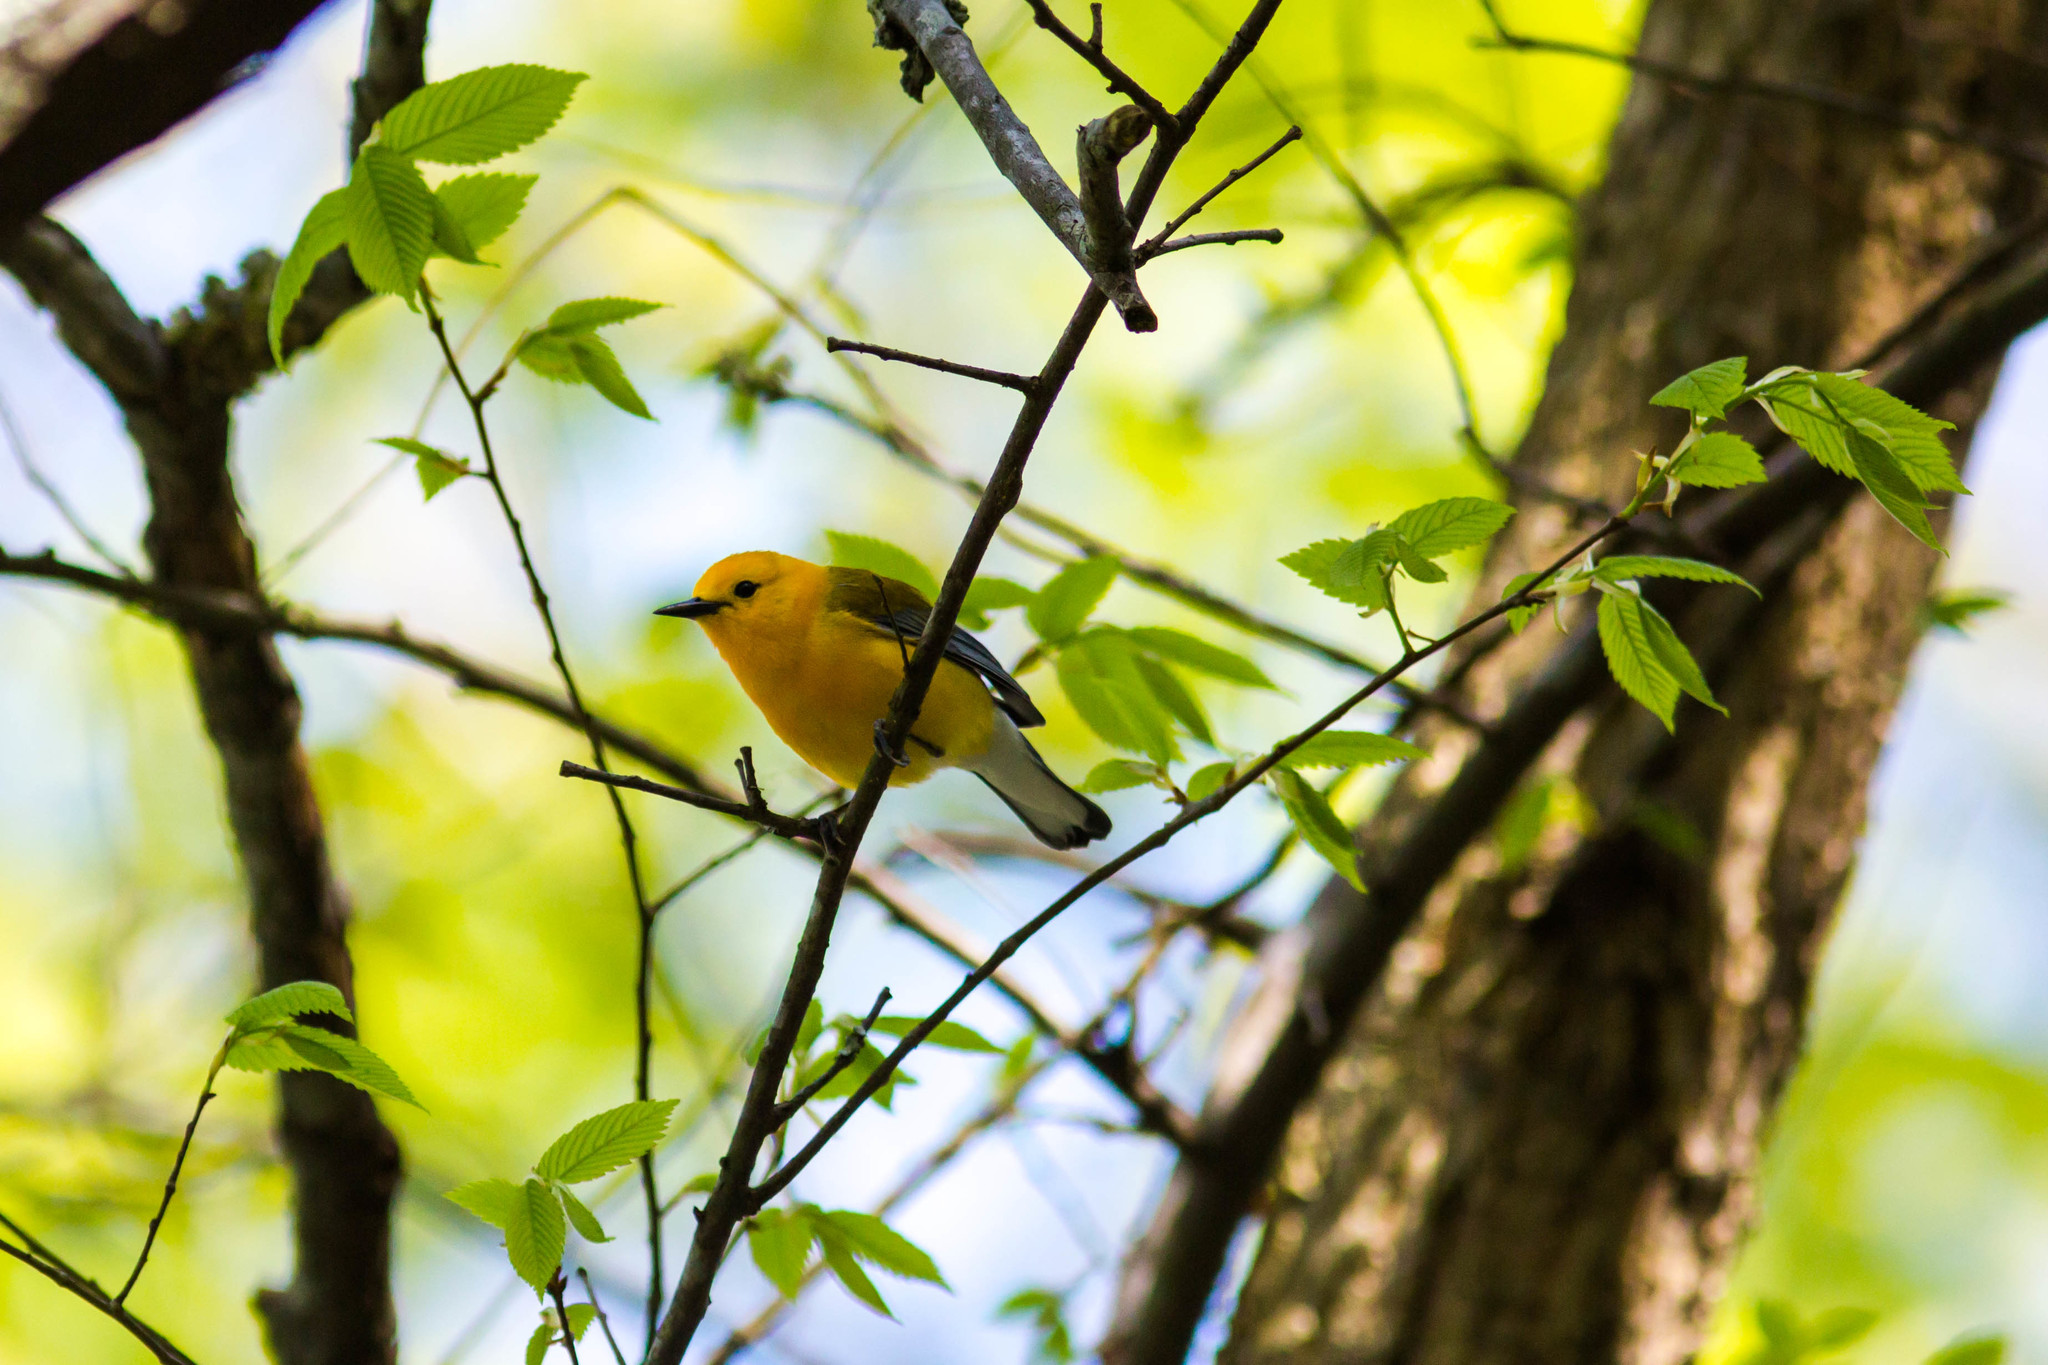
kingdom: Animalia
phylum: Chordata
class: Aves
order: Passeriformes
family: Parulidae
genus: Protonotaria
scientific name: Protonotaria citrea
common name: Prothonotary warbler
